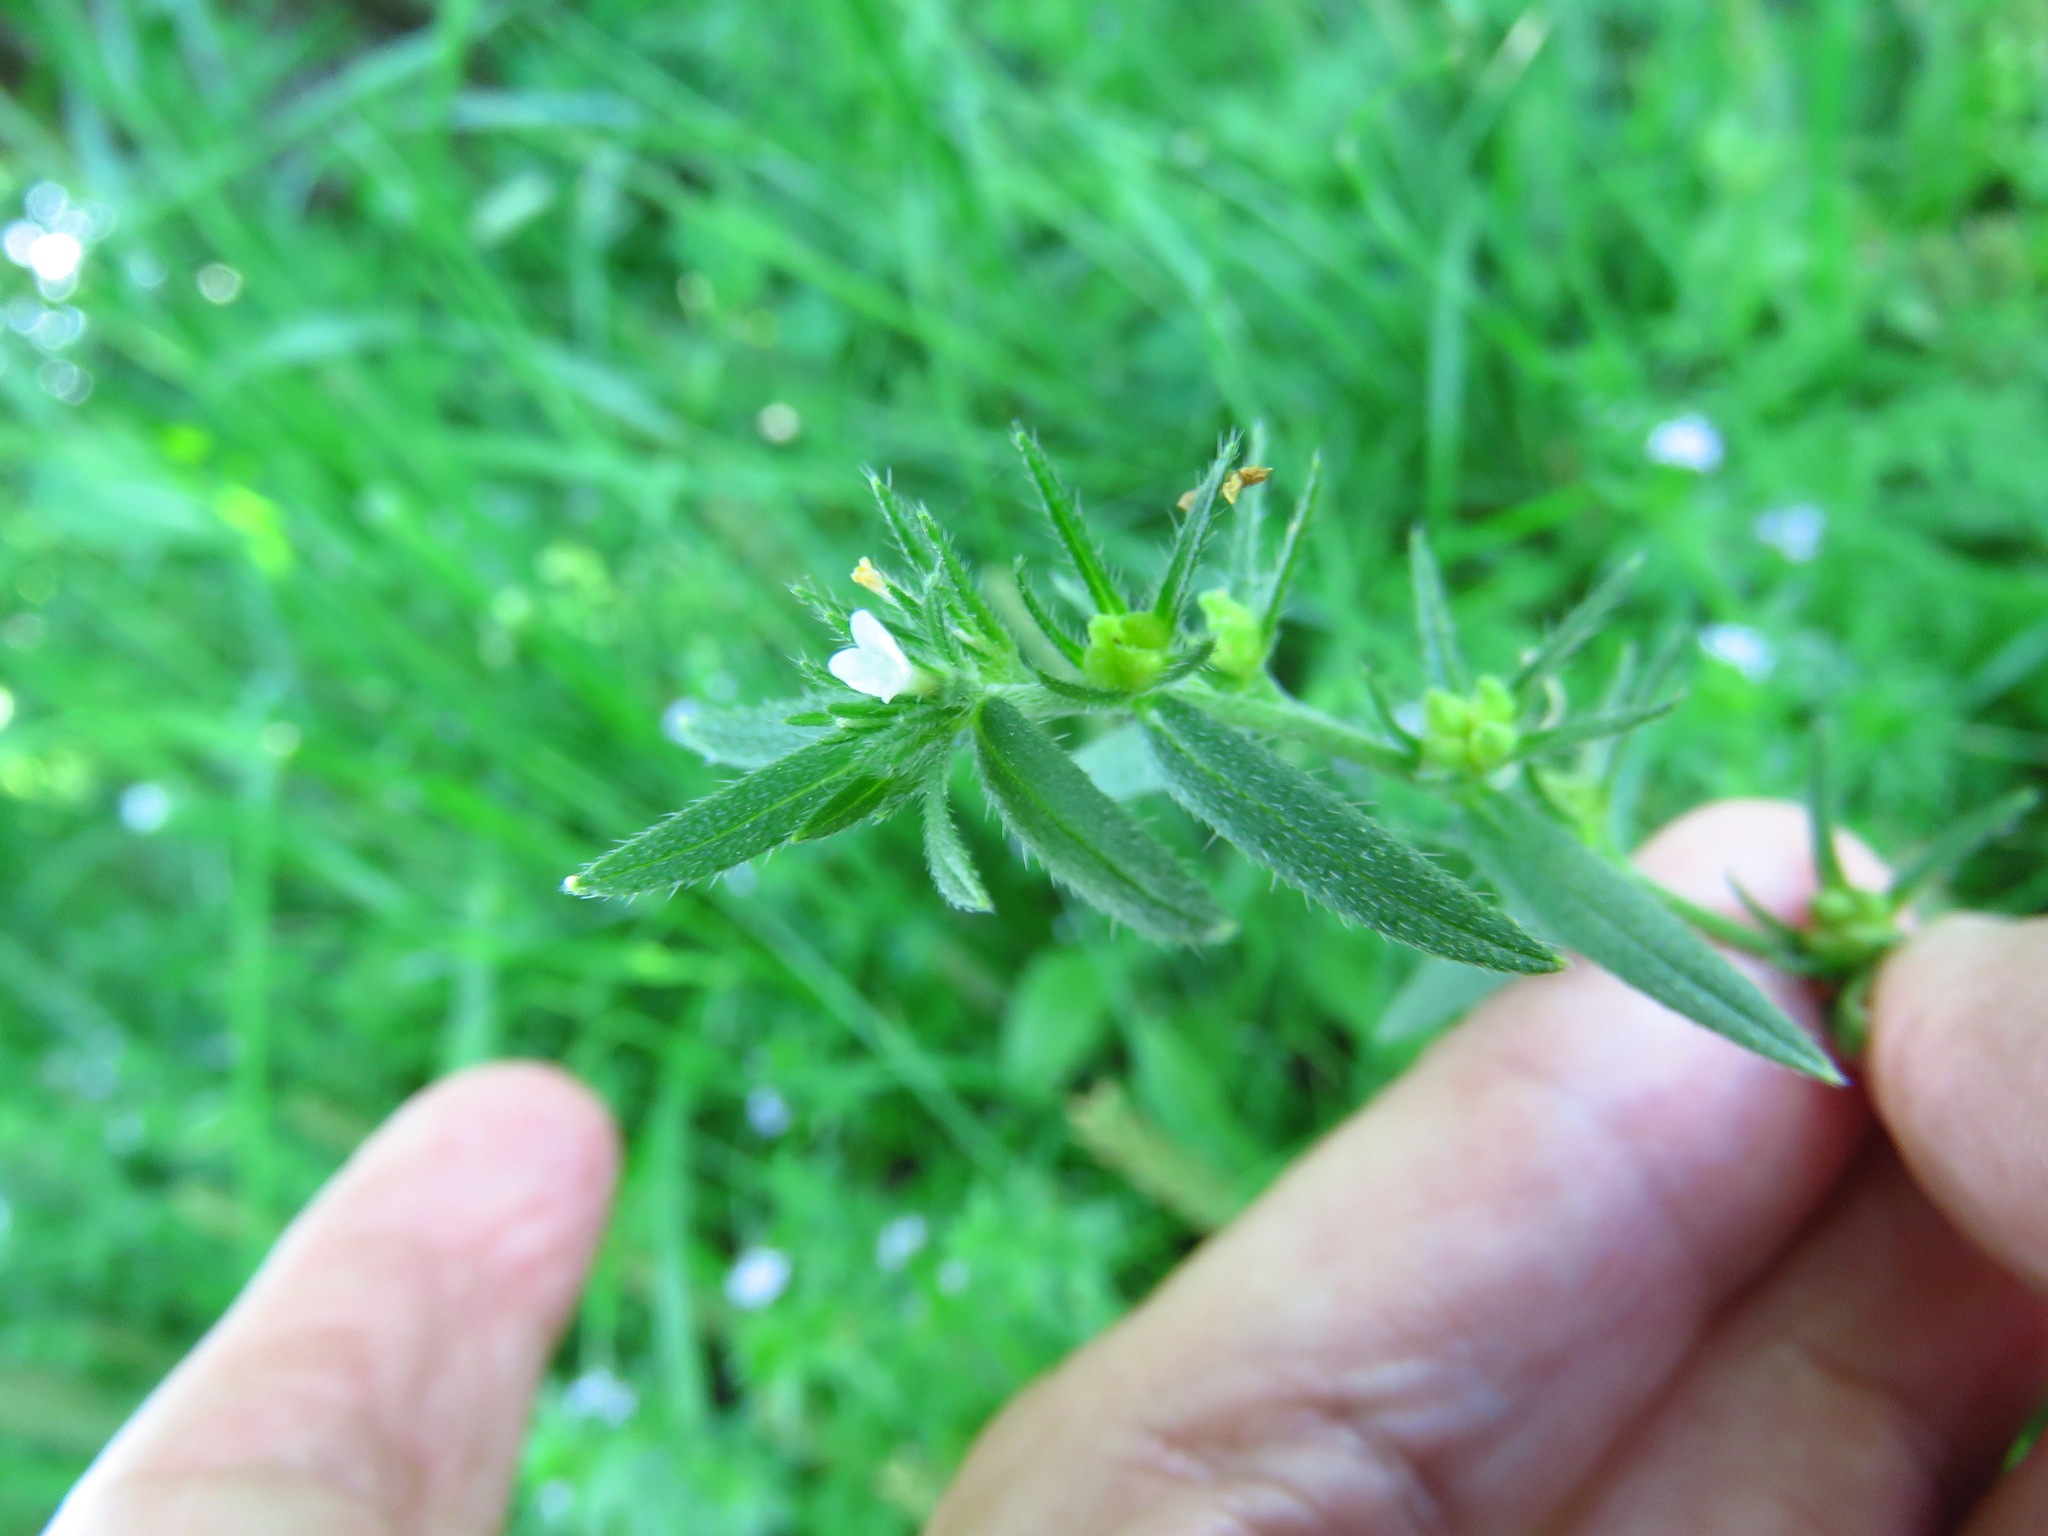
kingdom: Plantae
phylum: Tracheophyta
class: Magnoliopsida
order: Boraginales
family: Boraginaceae
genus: Buglossoides
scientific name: Buglossoides arvensis
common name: Corn gromwell
